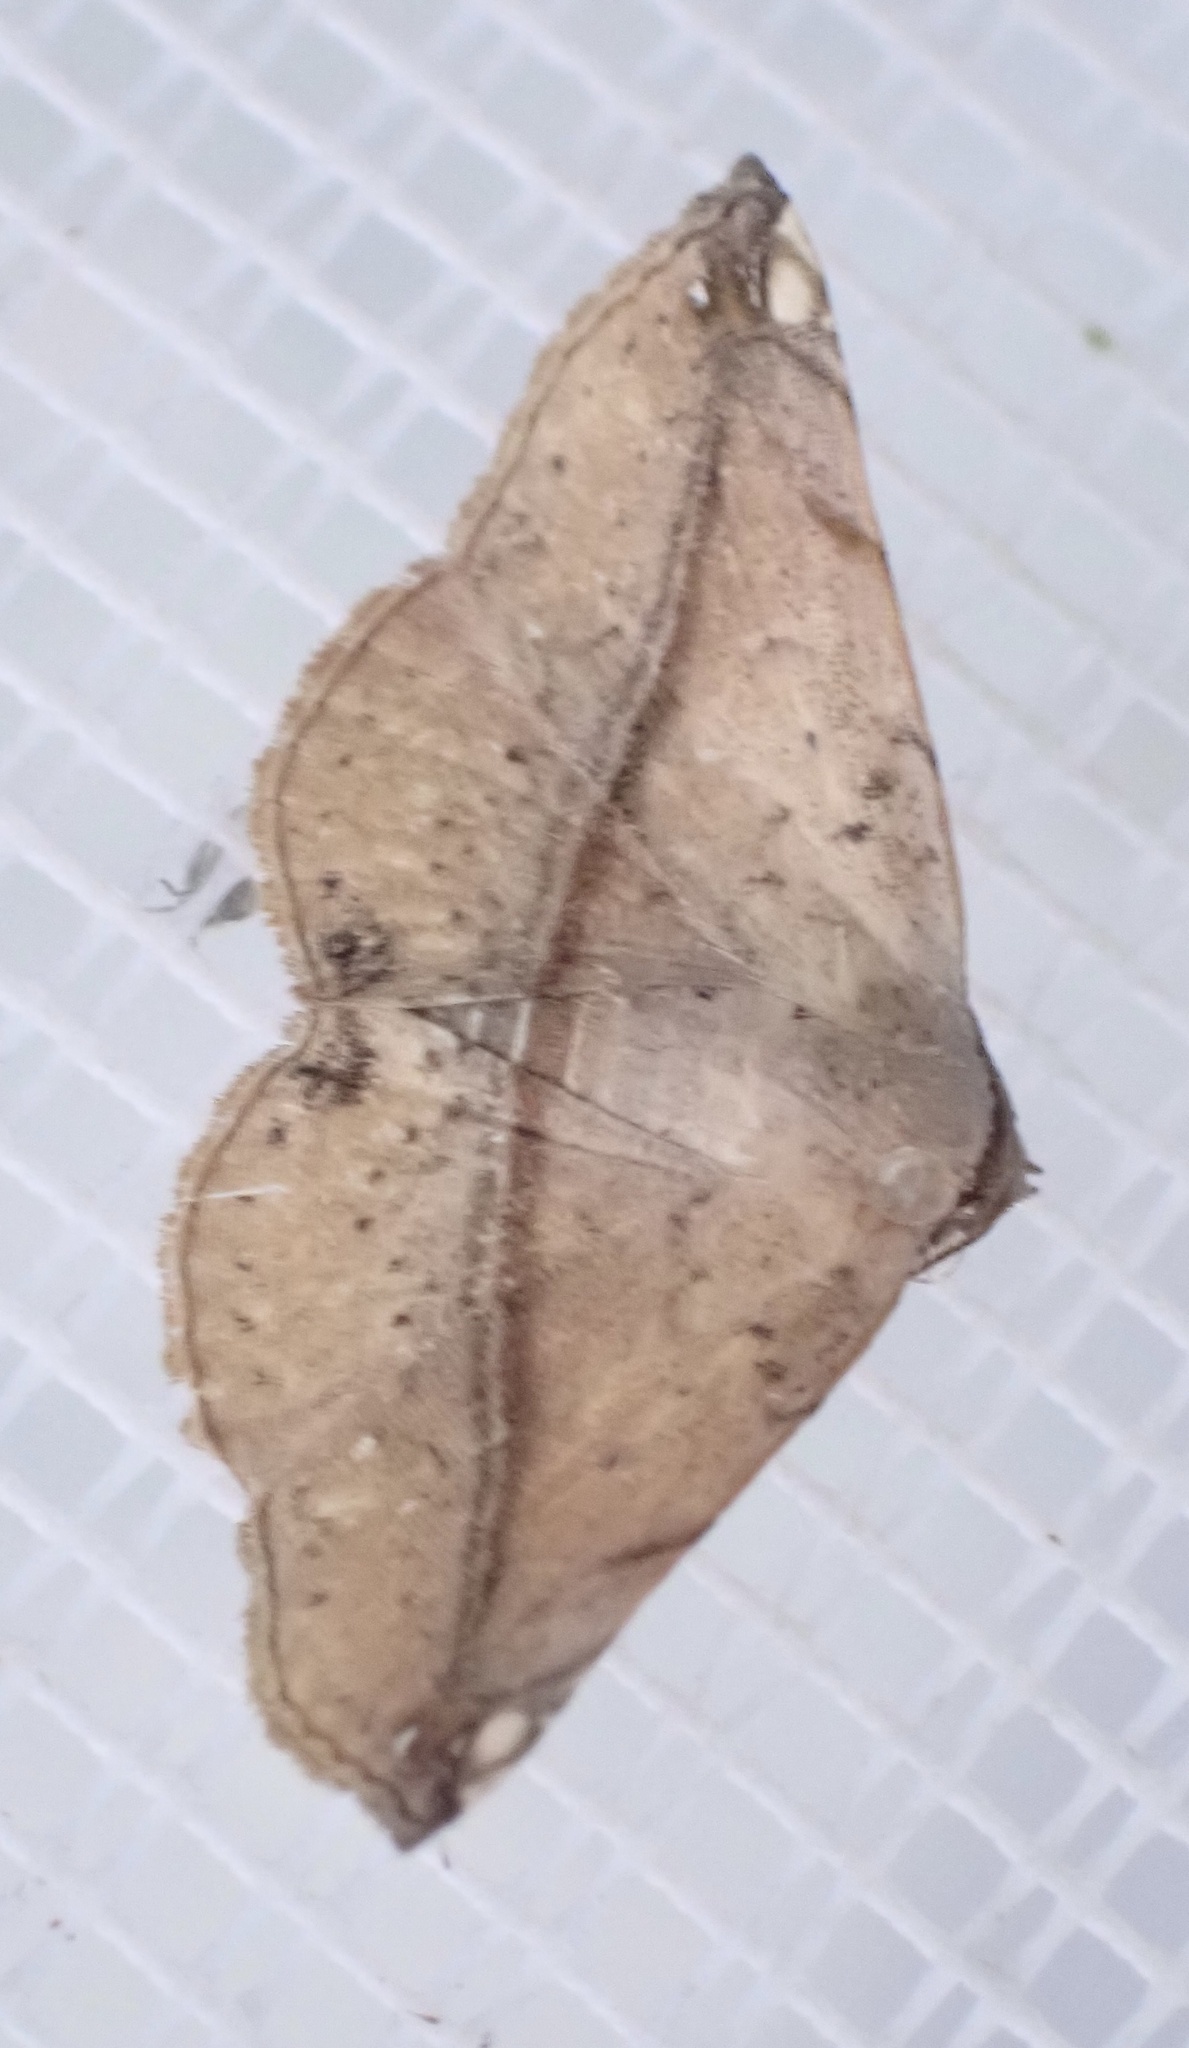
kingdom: Animalia
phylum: Arthropoda
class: Insecta
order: Lepidoptera
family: Noctuidae
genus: Eublemma
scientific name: Eublemma abrupta
